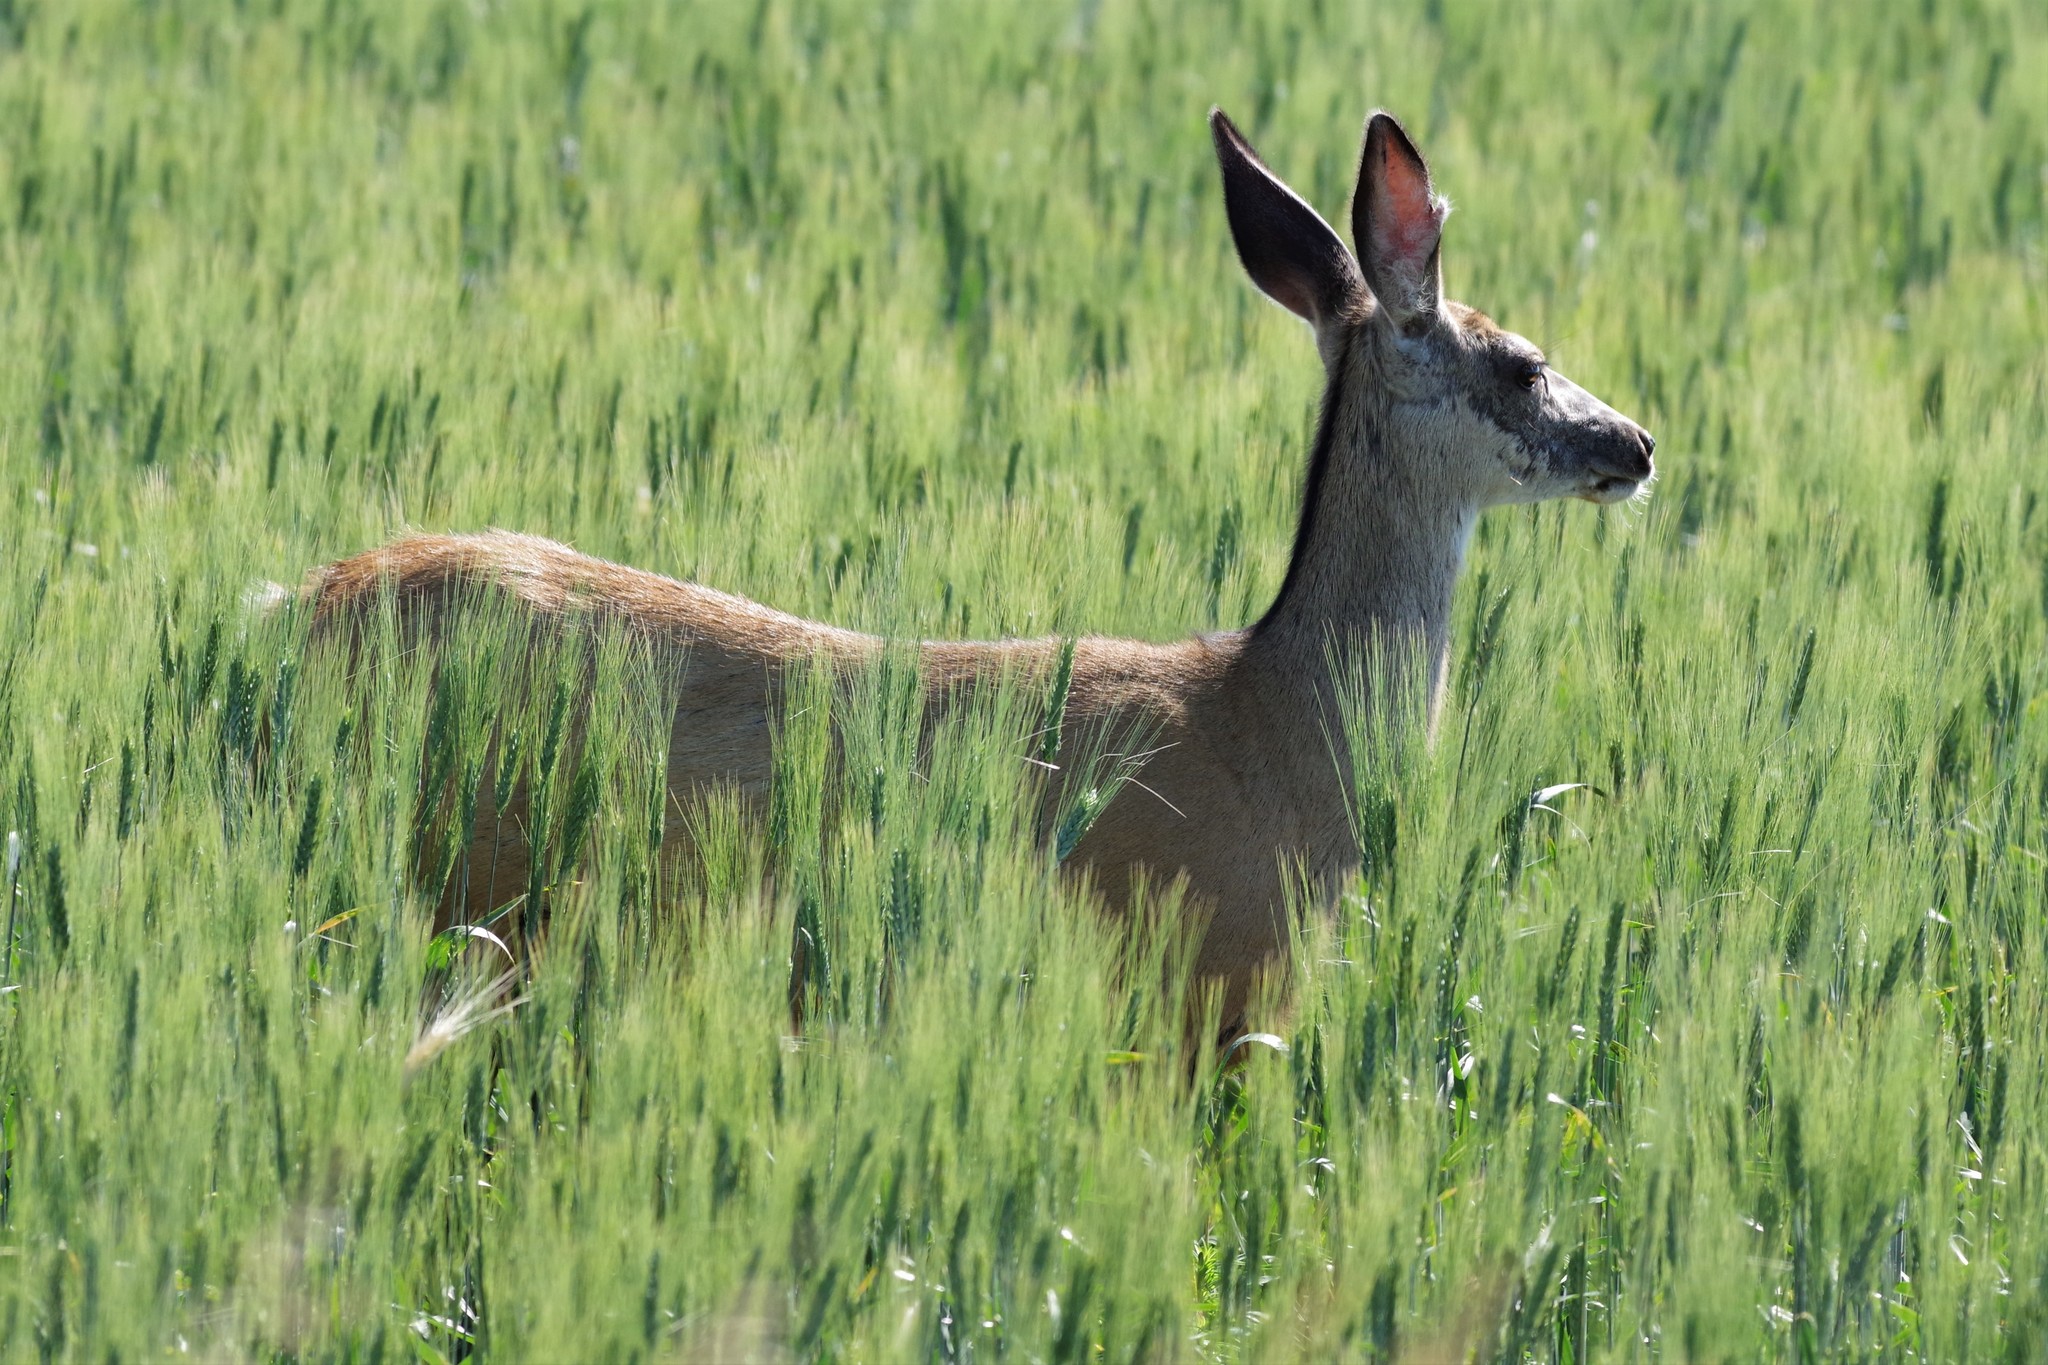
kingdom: Animalia
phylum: Chordata
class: Mammalia
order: Artiodactyla
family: Cervidae
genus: Odocoileus
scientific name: Odocoileus hemionus
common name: Mule deer
